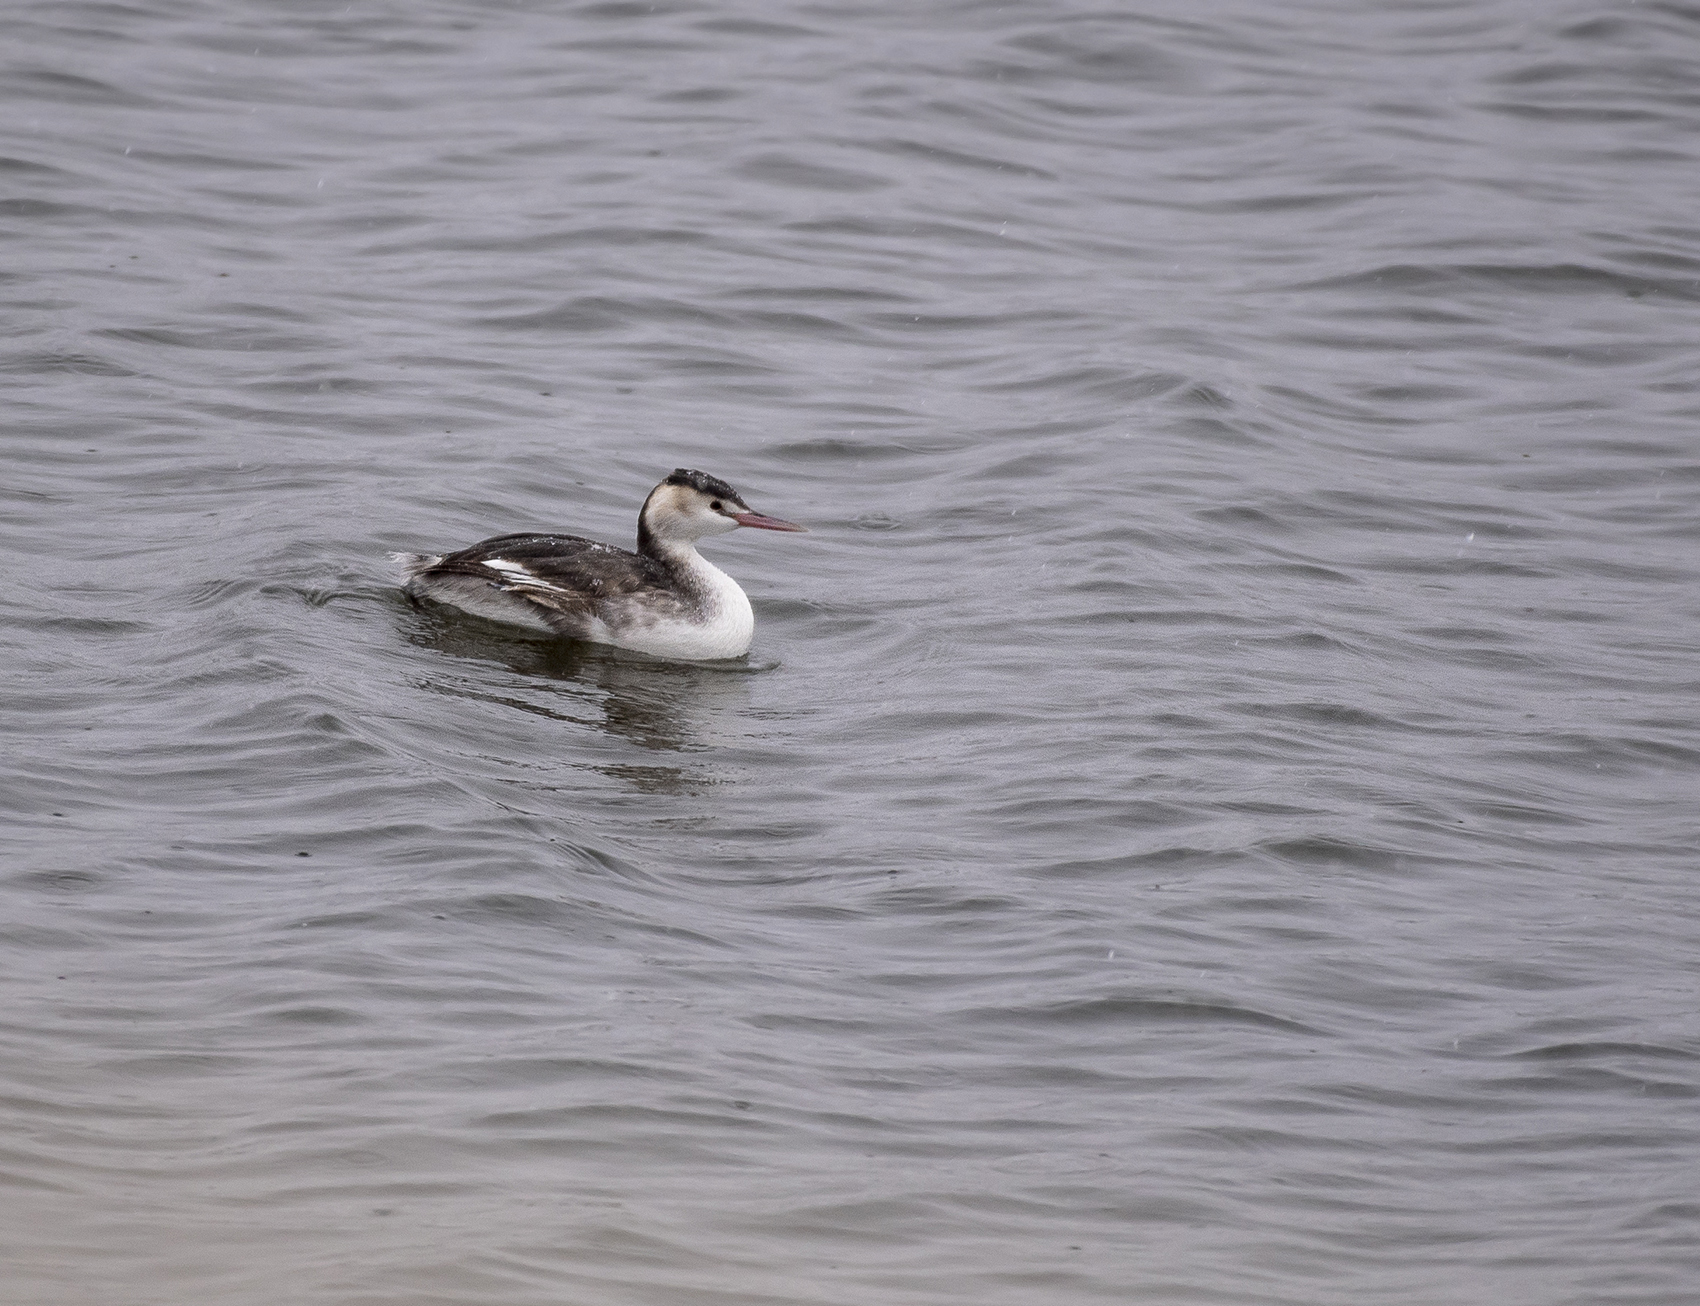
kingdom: Animalia
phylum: Chordata
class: Aves
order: Podicipediformes
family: Podicipedidae
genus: Podiceps
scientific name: Podiceps cristatus
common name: Great crested grebe
